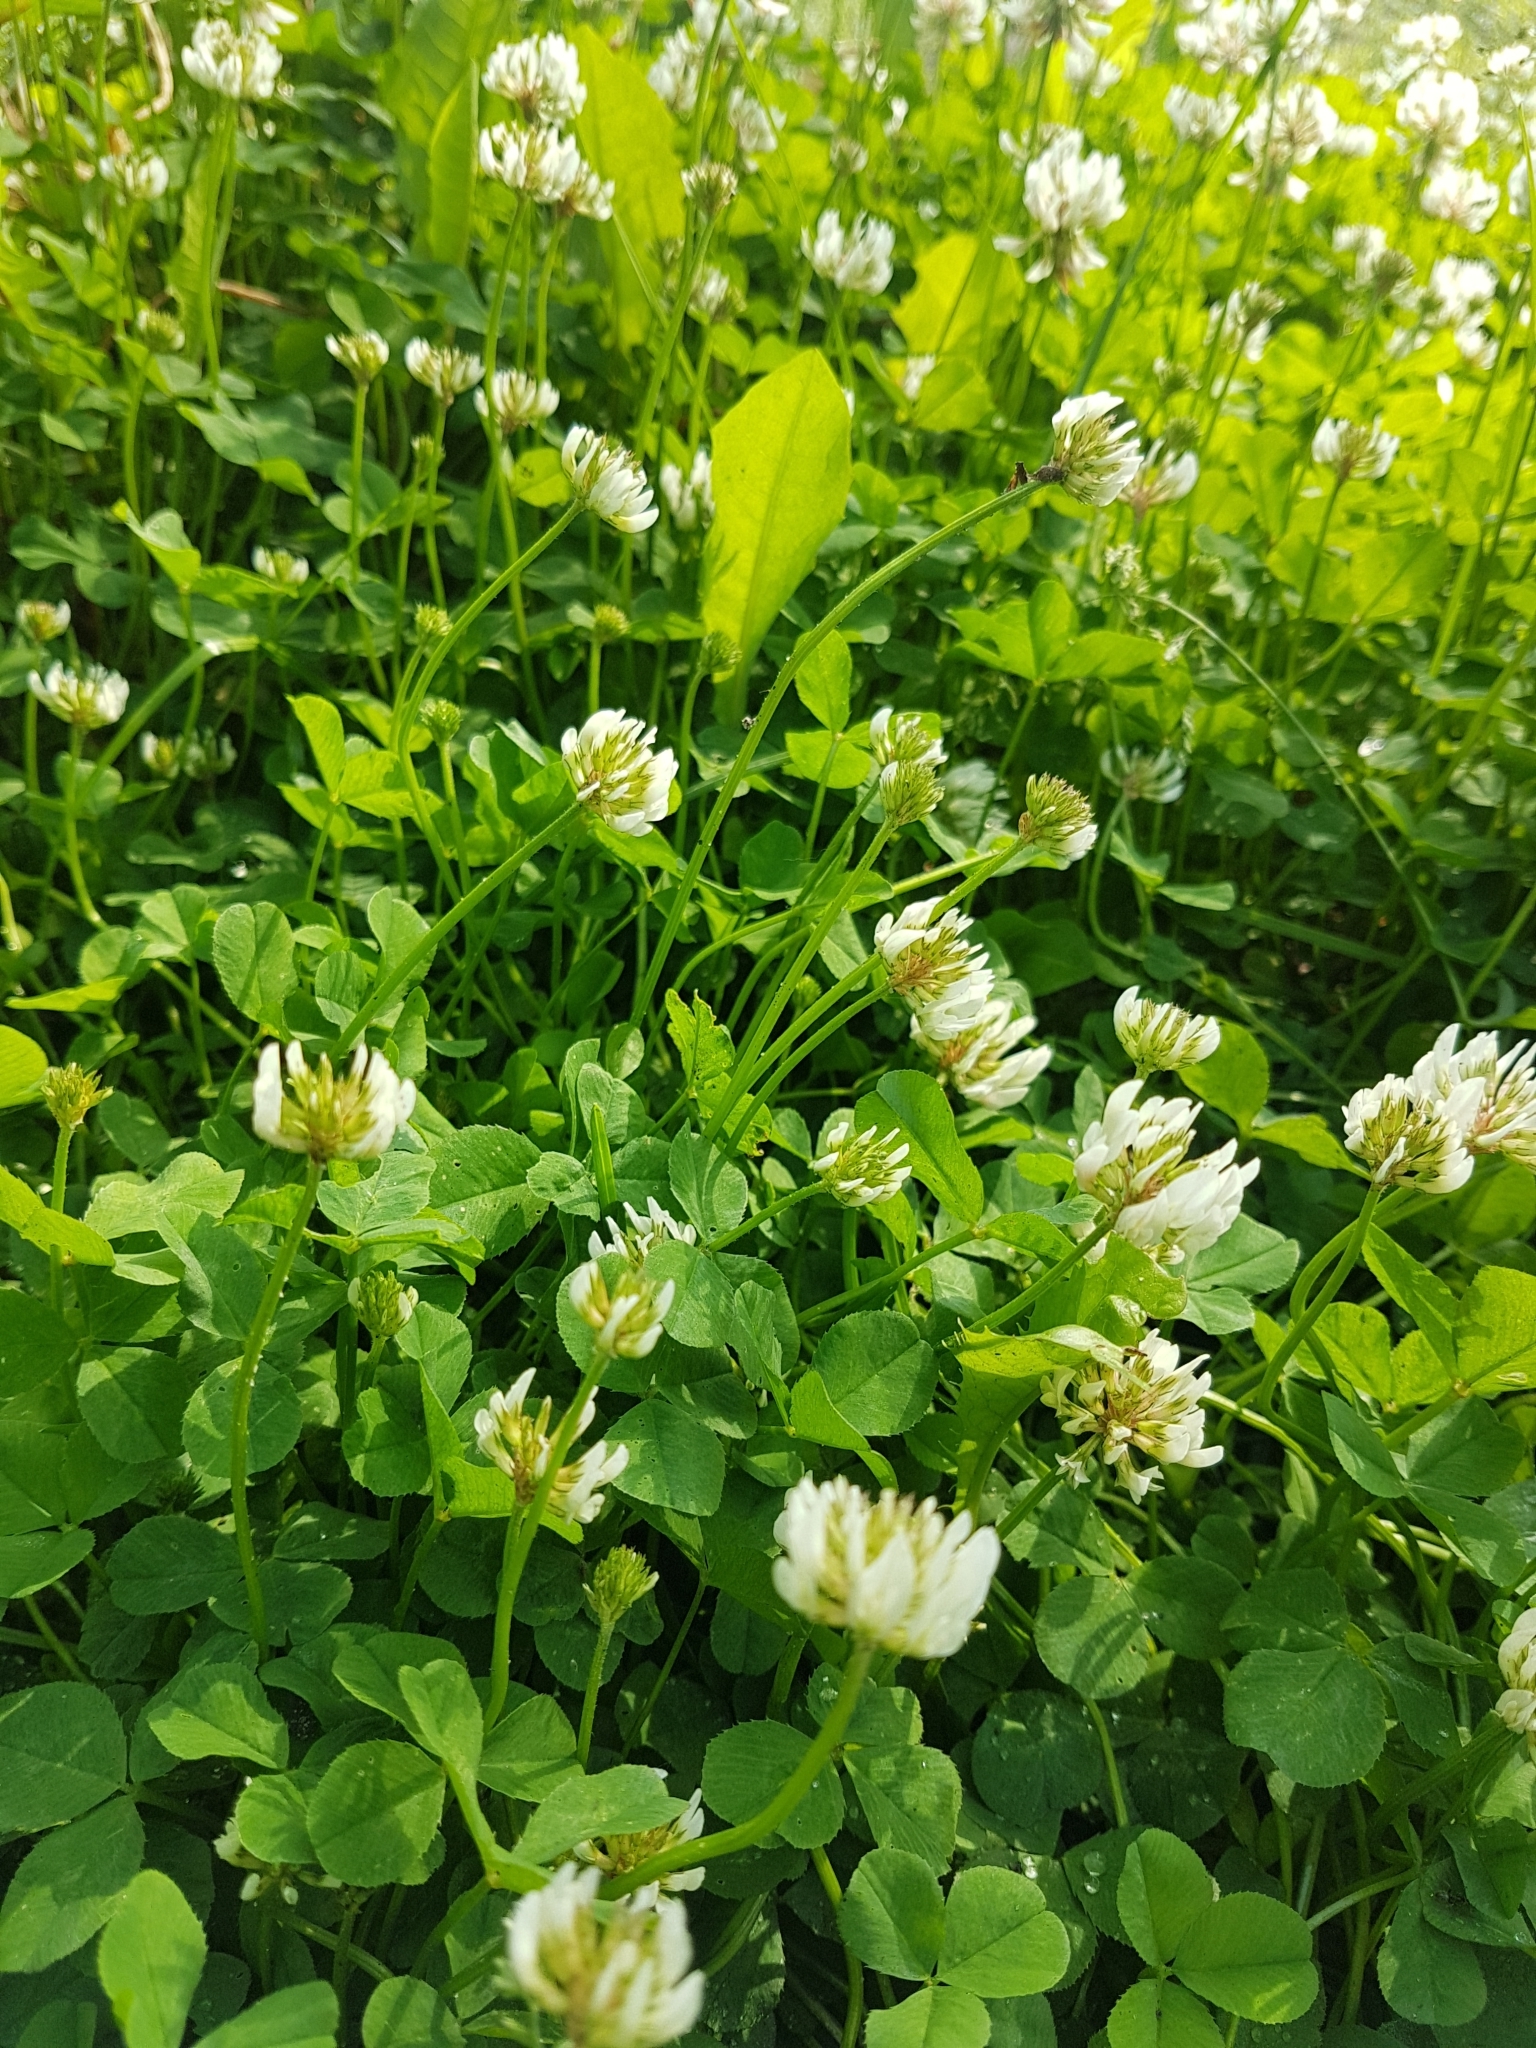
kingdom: Plantae
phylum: Tracheophyta
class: Magnoliopsida
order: Fabales
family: Fabaceae
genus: Trifolium
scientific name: Trifolium repens
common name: White clover
